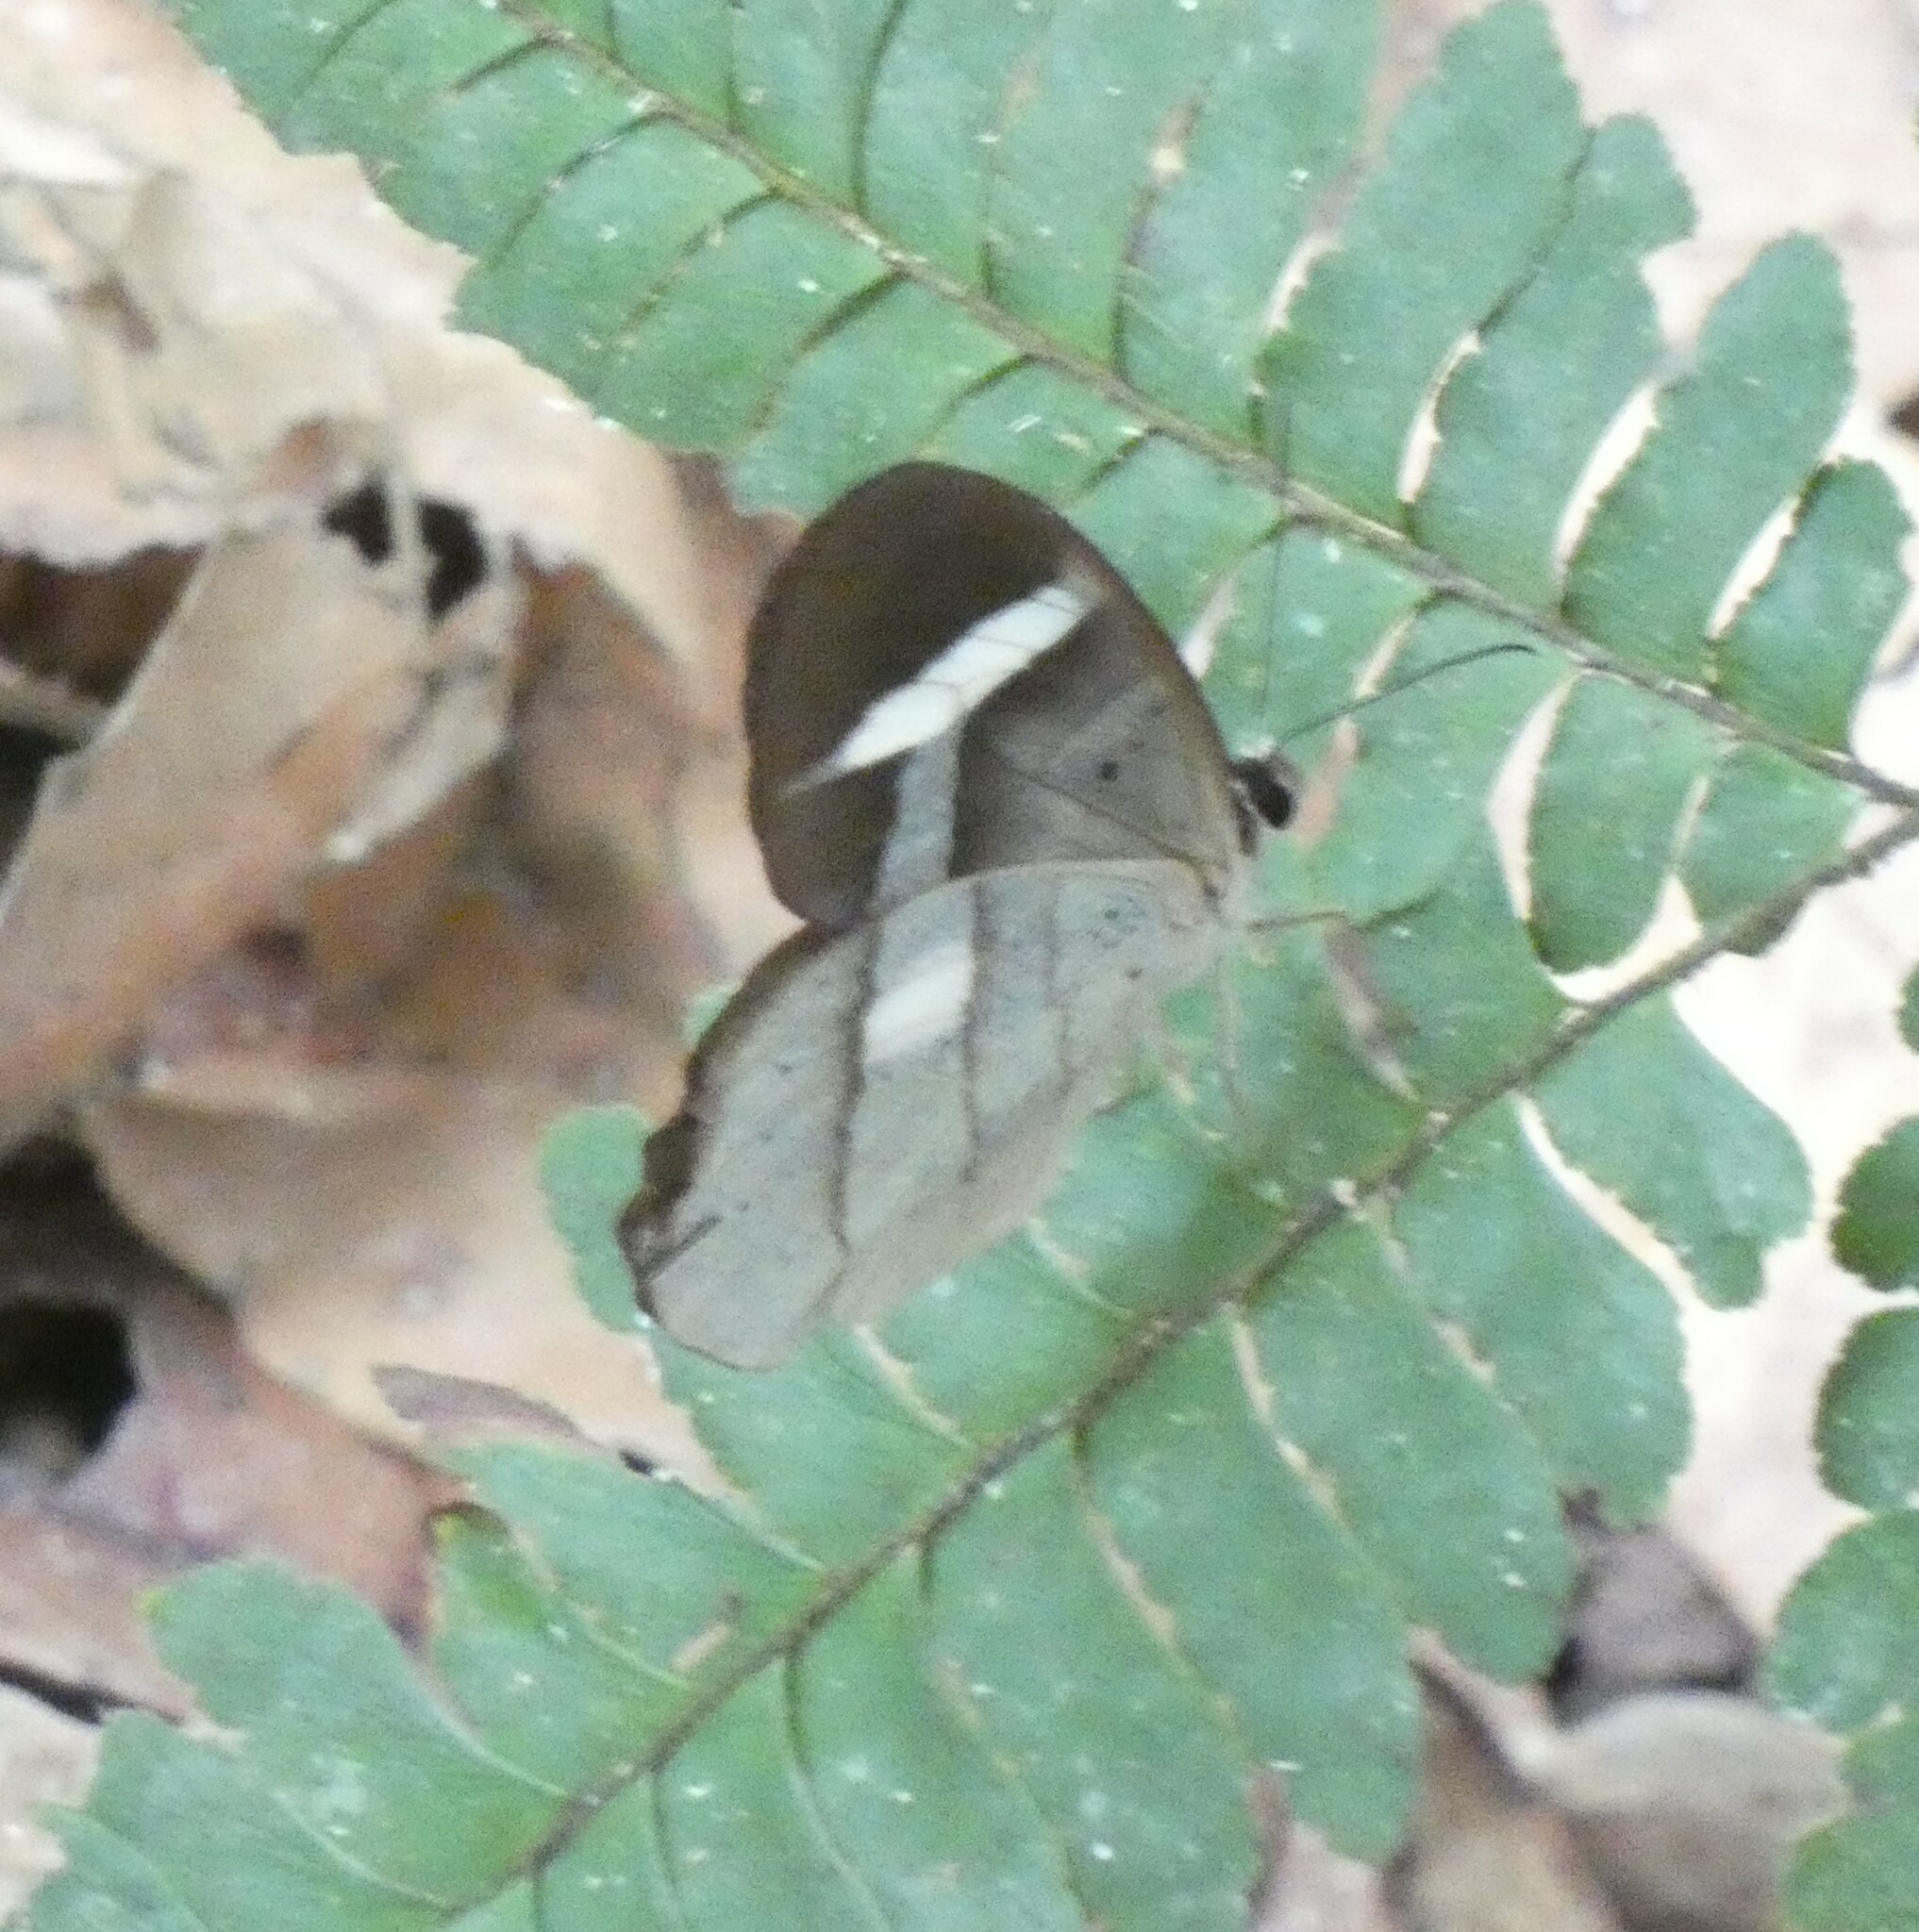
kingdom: Animalia
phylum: Arthropoda
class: Insecta
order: Lepidoptera
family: Nymphalidae
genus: Pierella
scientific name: Pierella hortona
